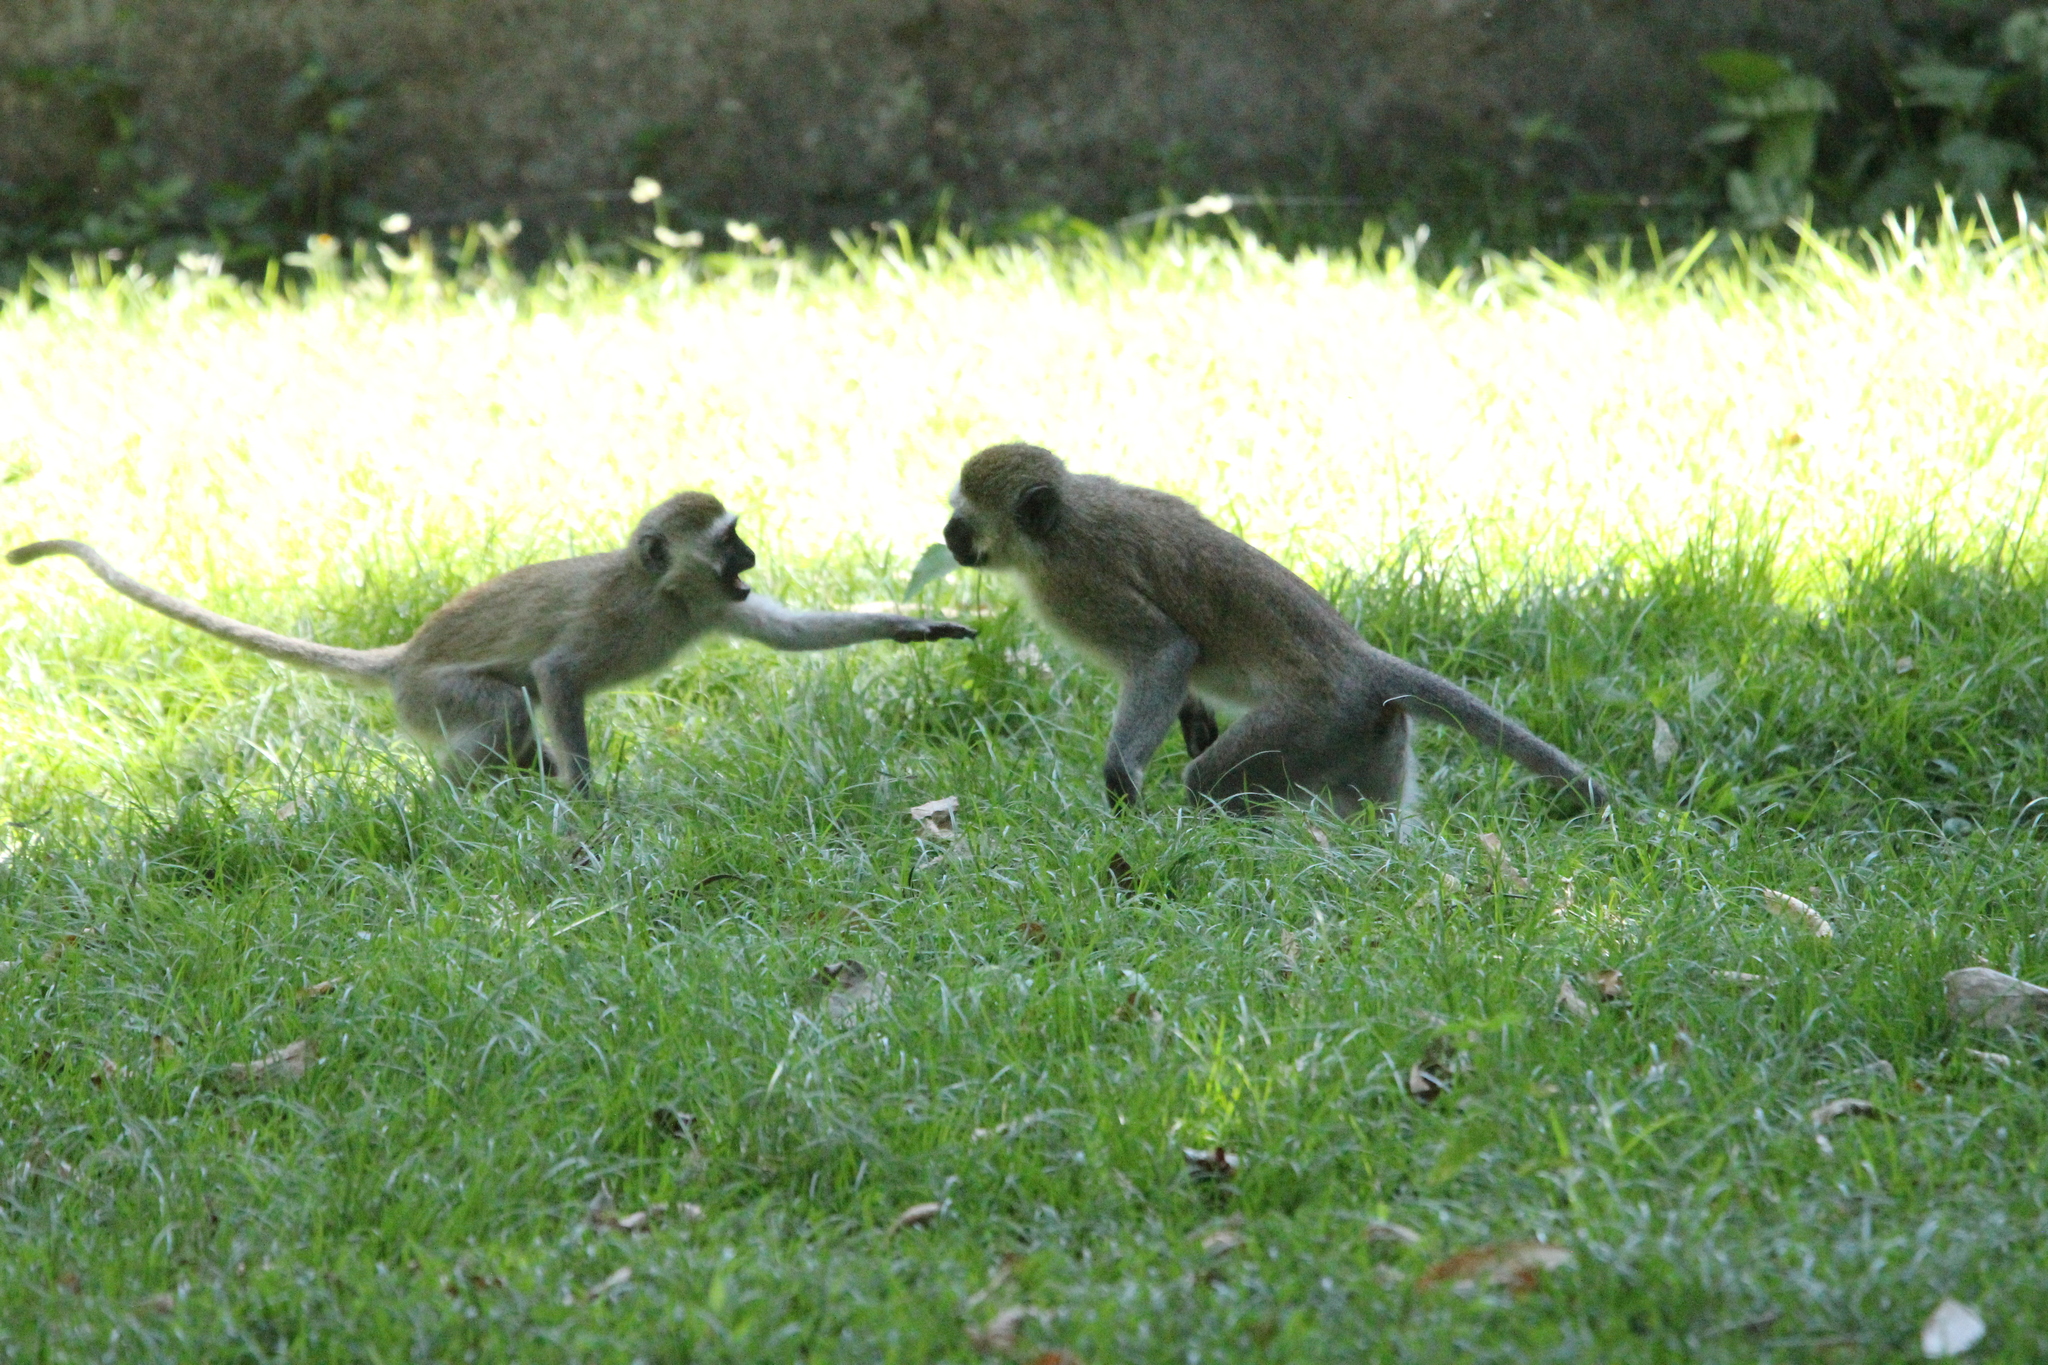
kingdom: Animalia
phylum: Chordata
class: Mammalia
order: Primates
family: Cercopithecidae
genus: Chlorocebus
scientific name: Chlorocebus pygerythrus
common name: Vervet monkey
